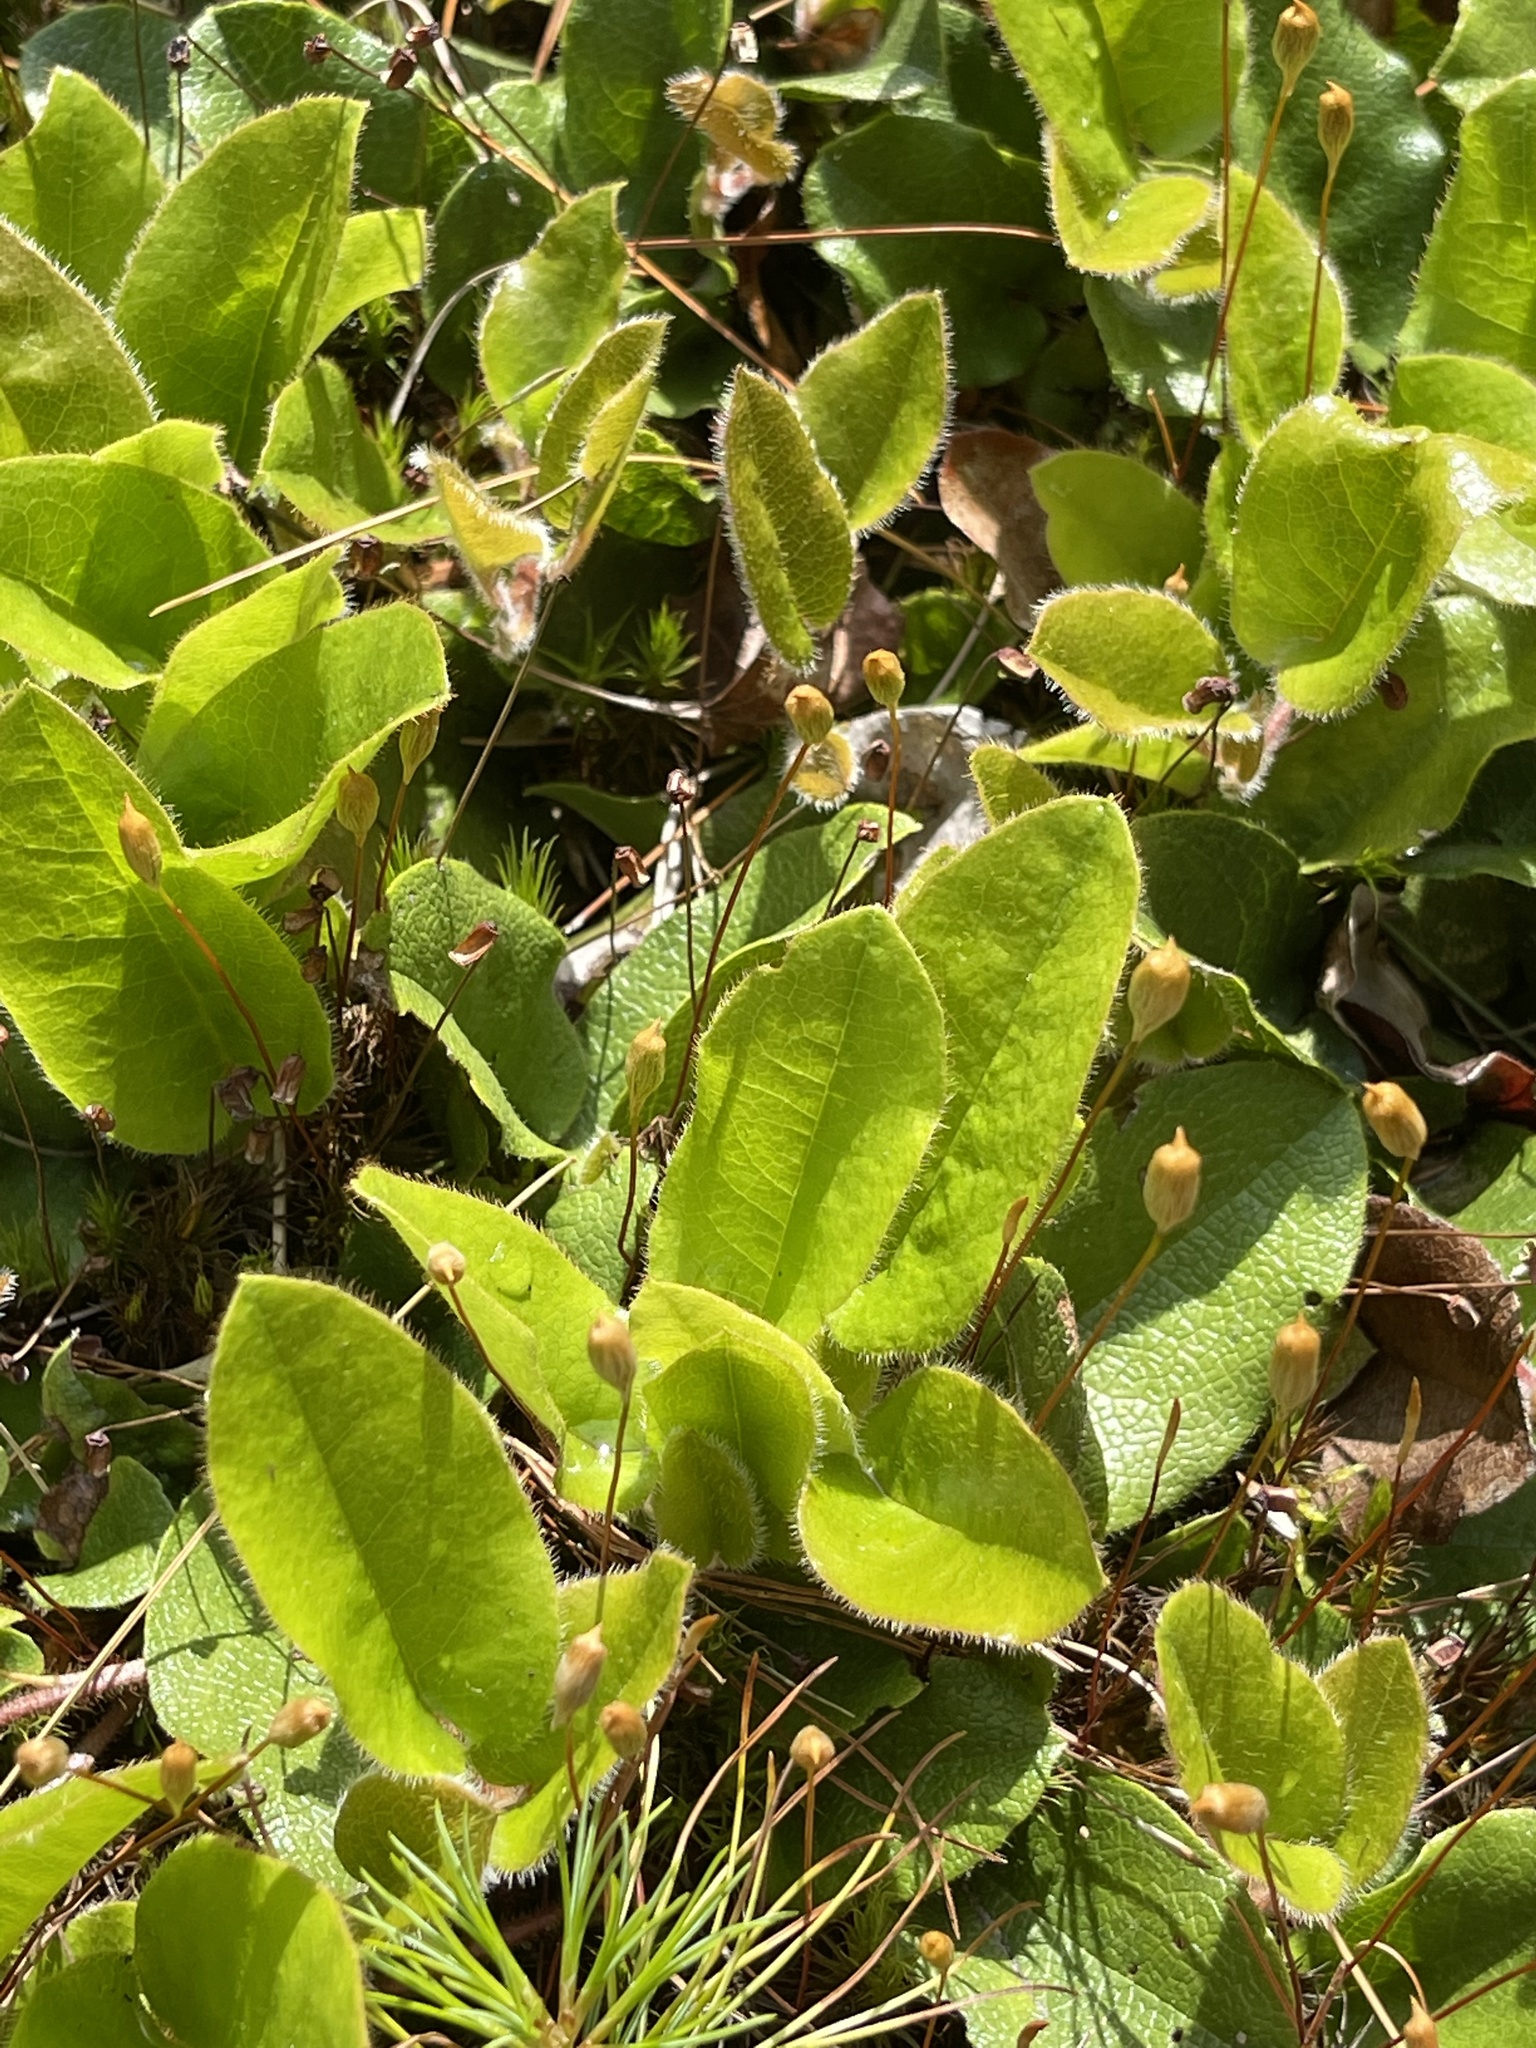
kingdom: Plantae
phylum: Tracheophyta
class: Magnoliopsida
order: Ericales
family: Ericaceae
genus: Epigaea
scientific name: Epigaea repens
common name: Gravelroot
